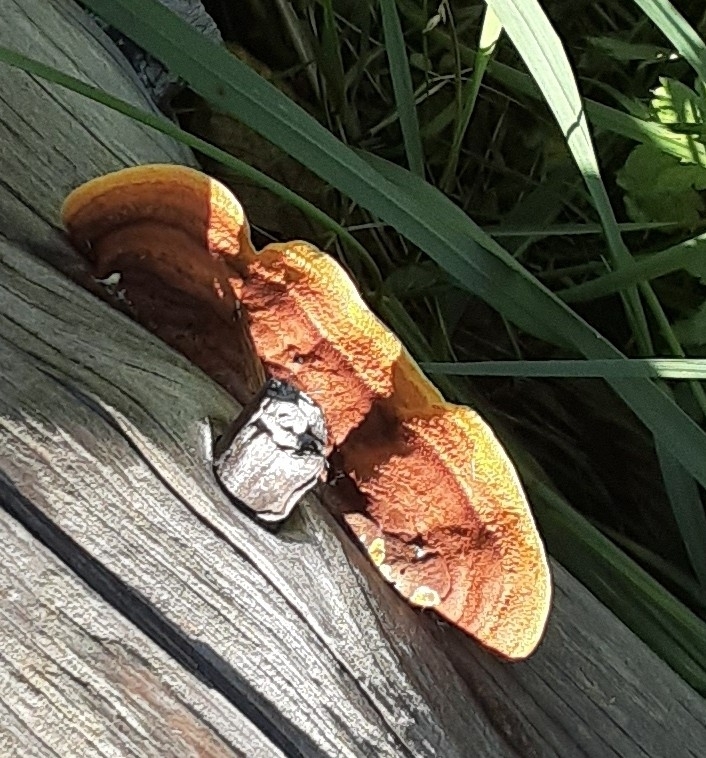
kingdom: Fungi
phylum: Basidiomycota
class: Agaricomycetes
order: Gloeophyllales
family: Gloeophyllaceae
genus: Gloeophyllum
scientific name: Gloeophyllum sepiarium
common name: Conifer mazegill
